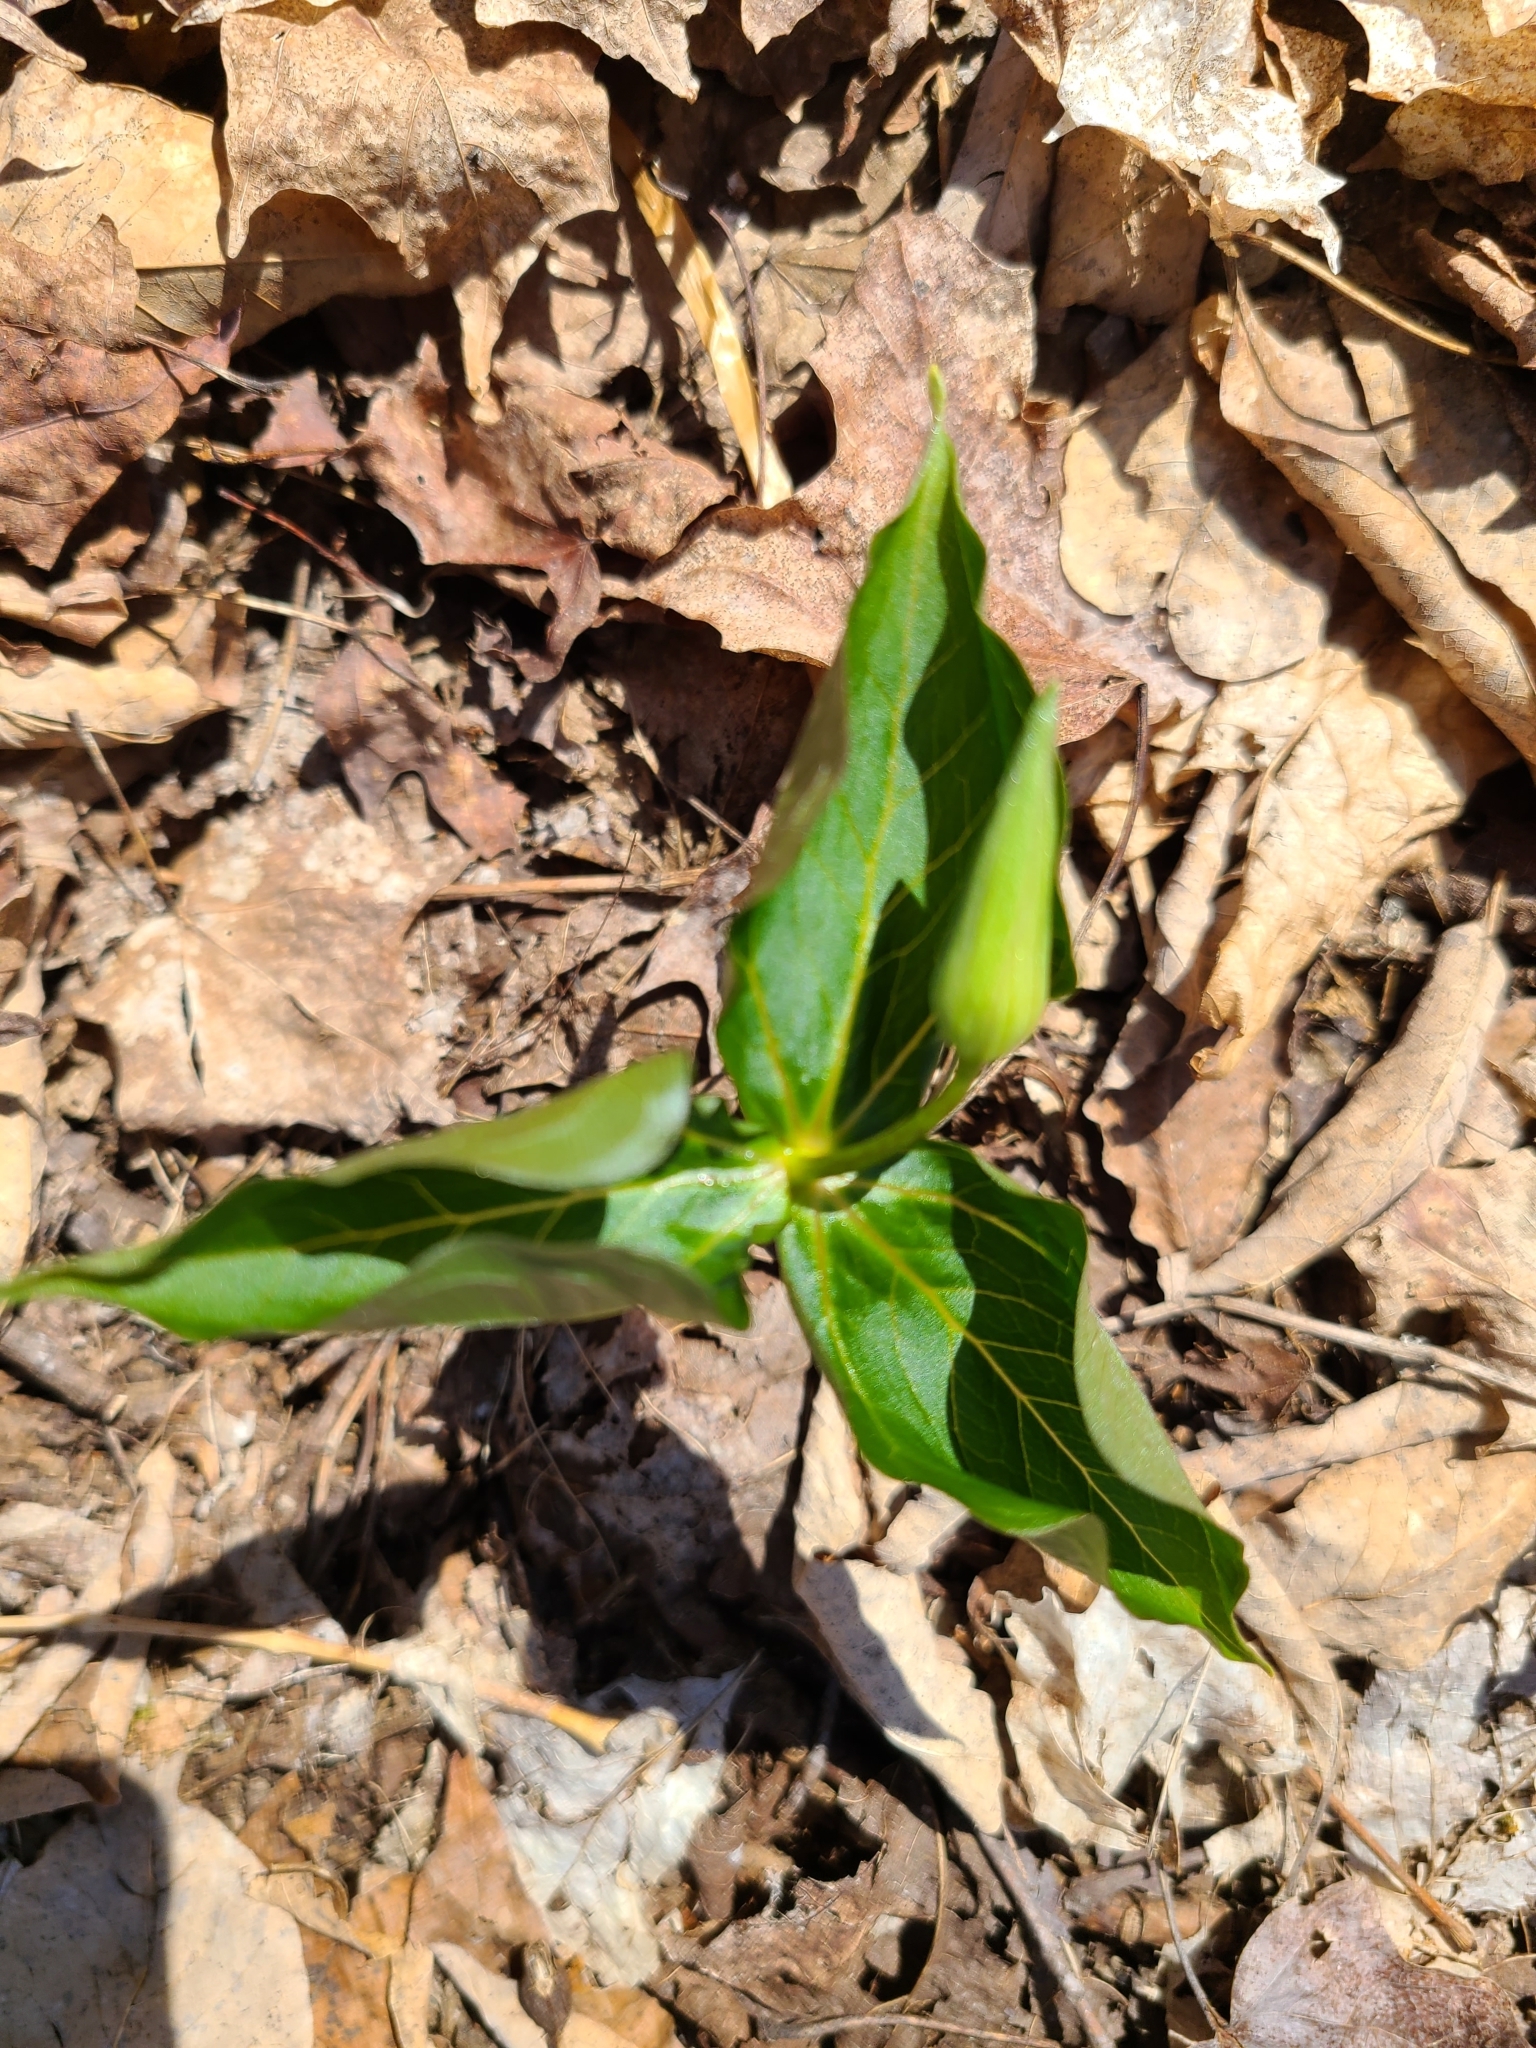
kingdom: Plantae
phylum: Tracheophyta
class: Liliopsida
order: Liliales
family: Melanthiaceae
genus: Trillium
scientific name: Trillium erectum
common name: Purple trillium
